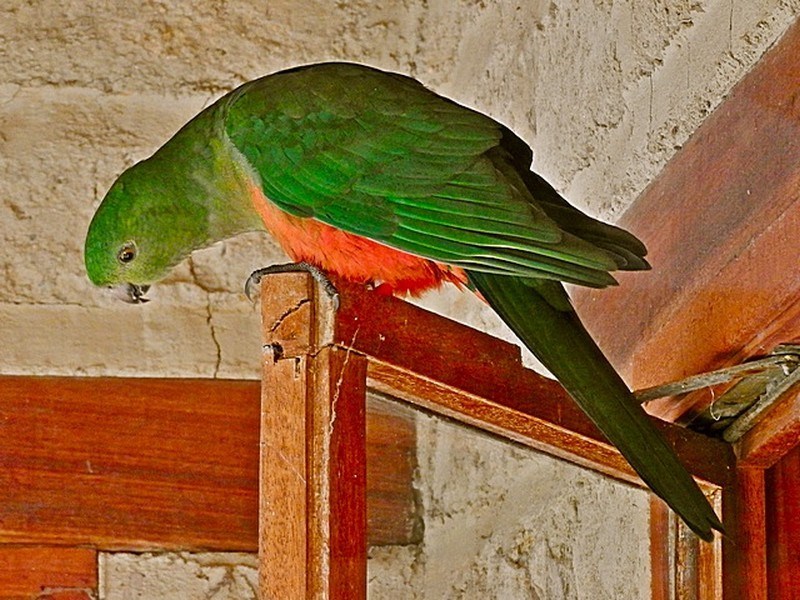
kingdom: Animalia
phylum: Chordata
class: Aves
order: Psittaciformes
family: Psittacidae
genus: Alisterus
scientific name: Alisterus scapularis
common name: Australian king parrot
